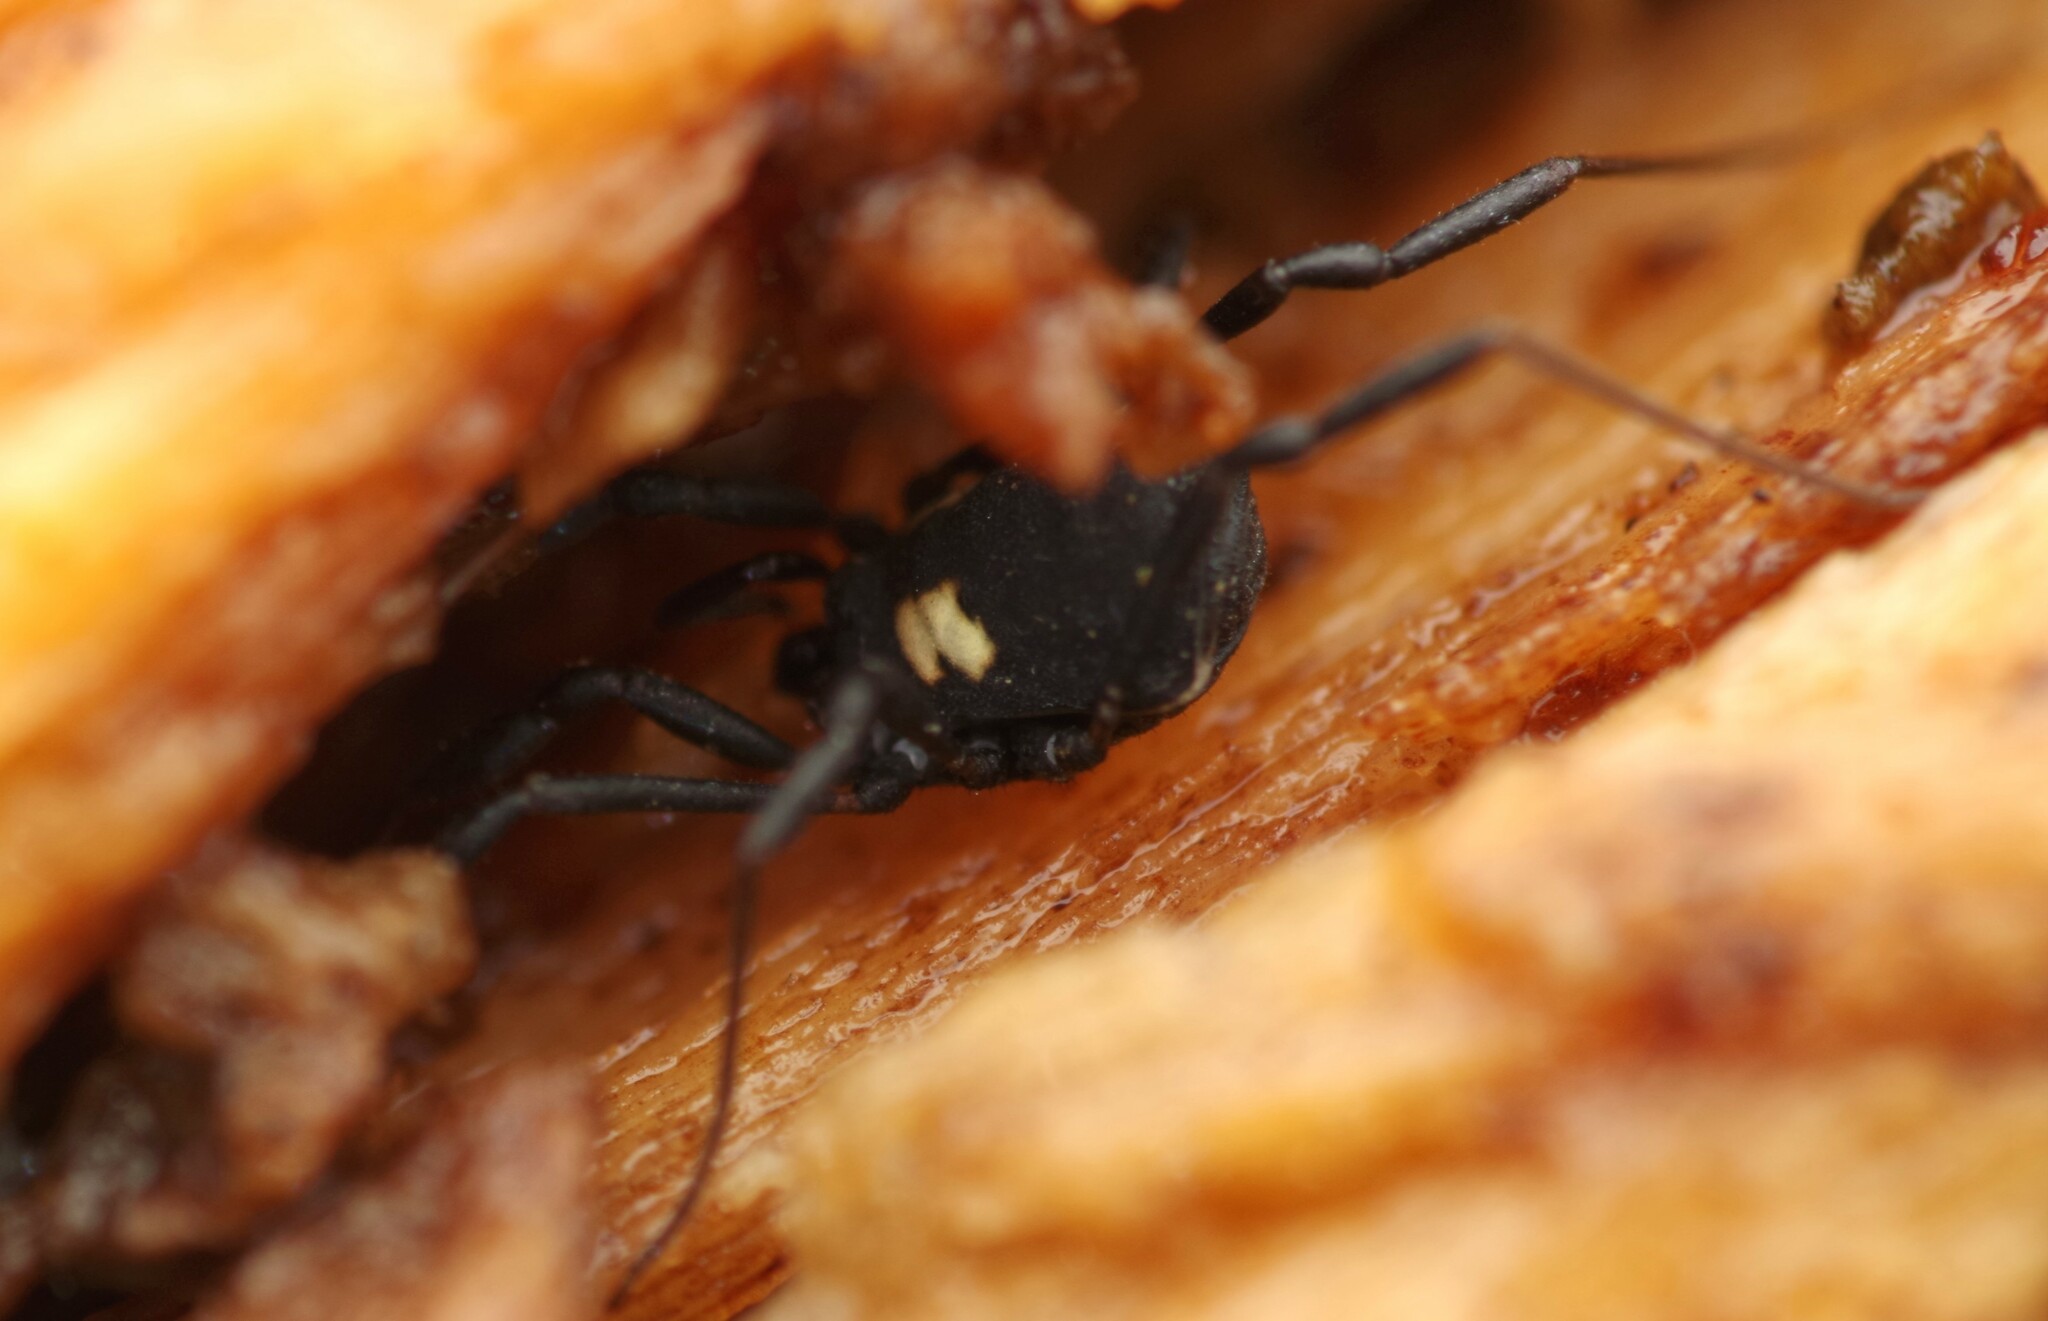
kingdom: Animalia
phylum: Arthropoda
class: Arachnida
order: Opiliones
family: Nemastomatidae
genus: Nemastoma
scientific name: Nemastoma bimaculatum
